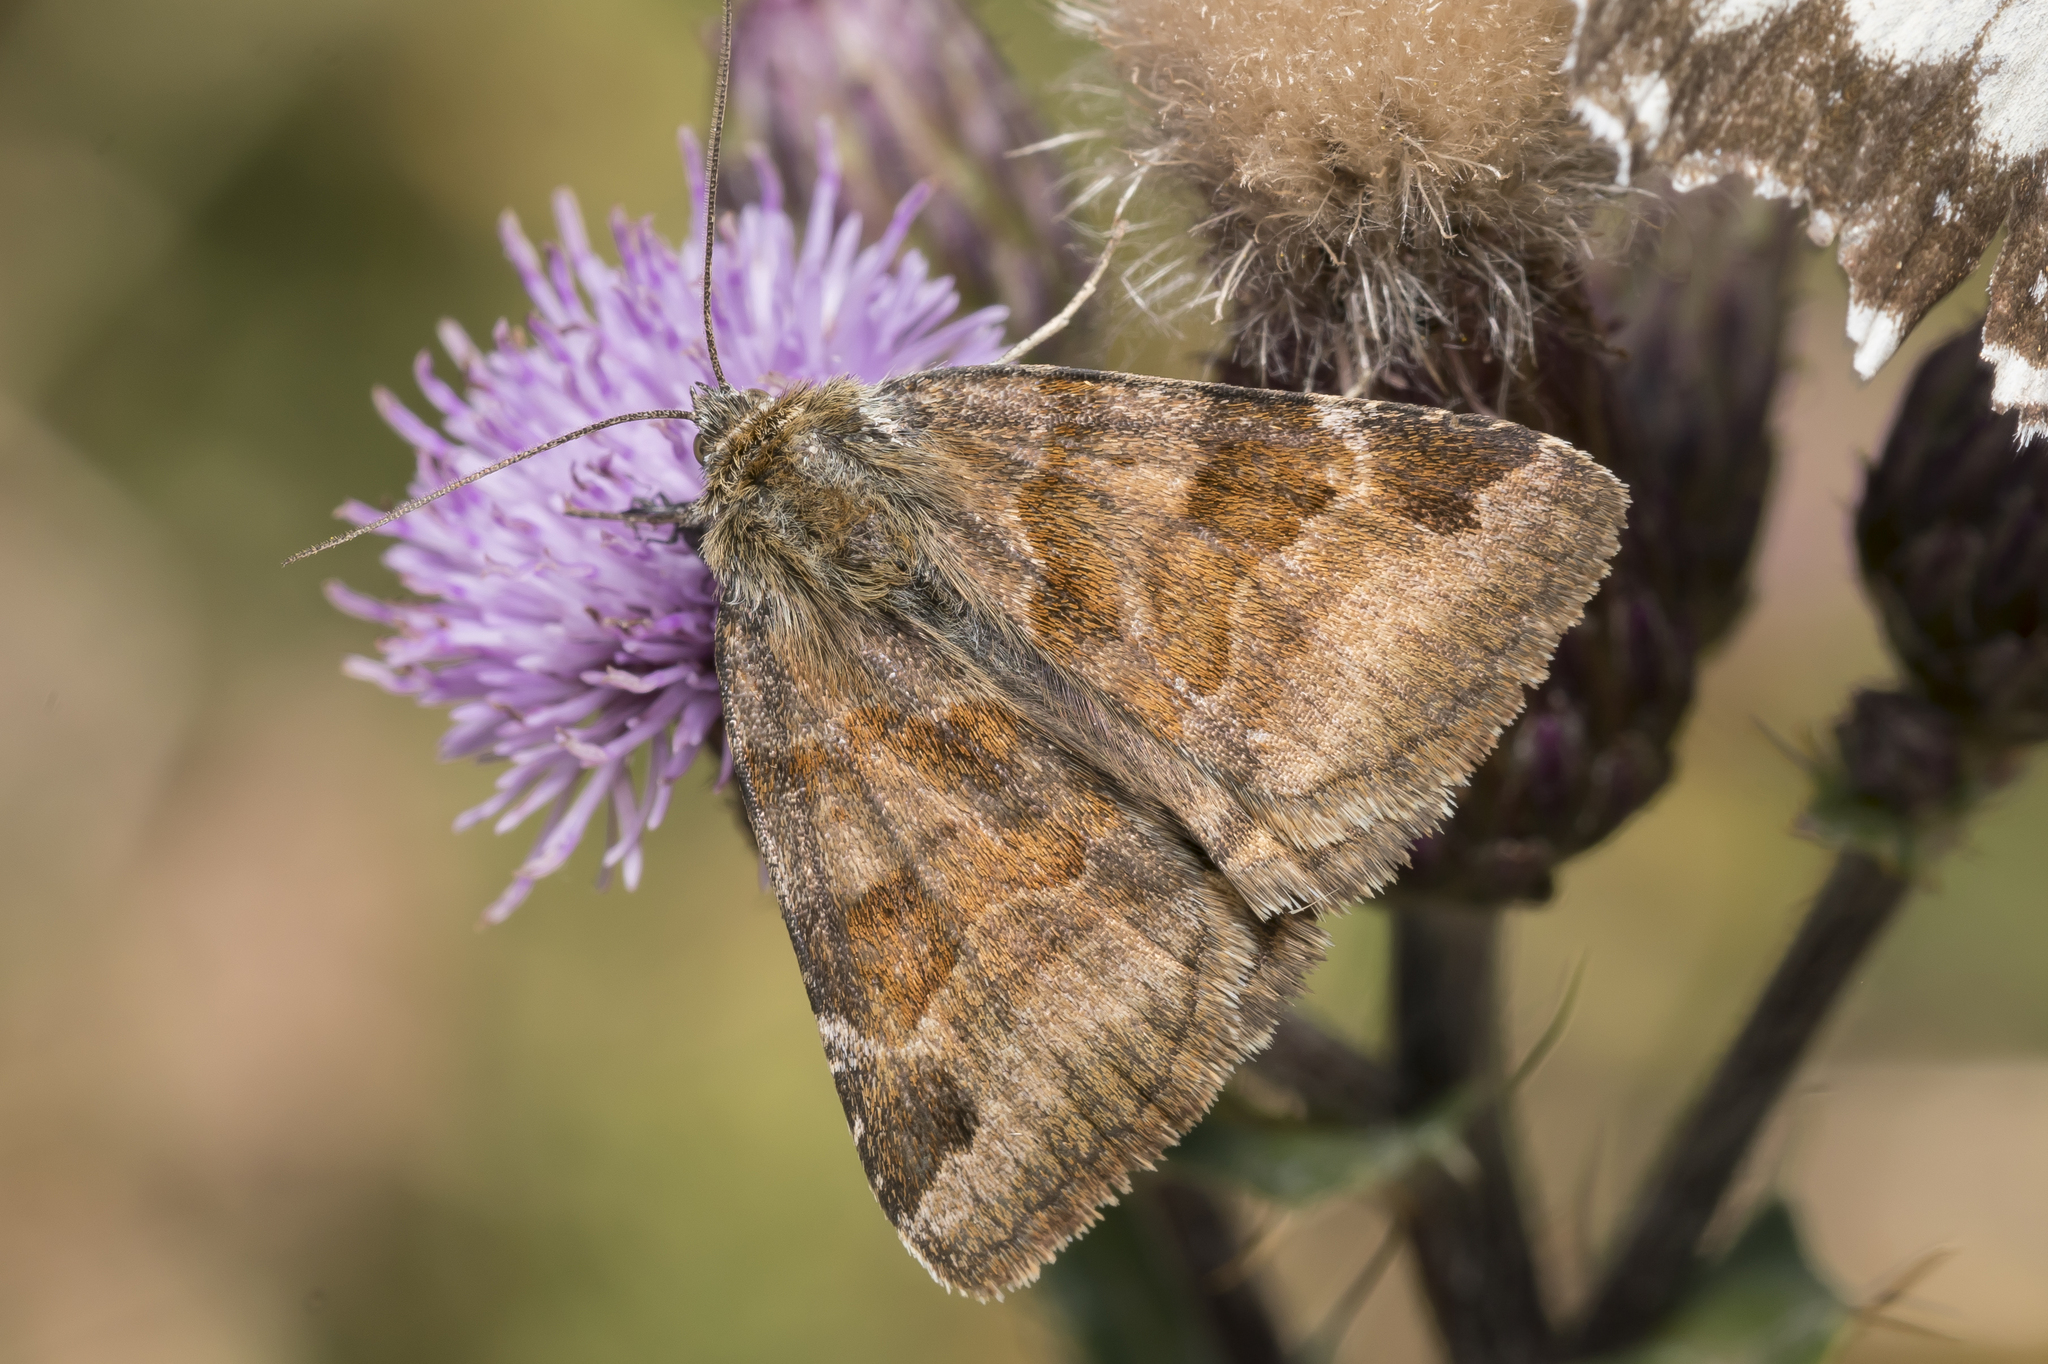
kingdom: Animalia
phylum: Arthropoda
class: Insecta
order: Lepidoptera
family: Erebidae
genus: Euclidia
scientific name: Euclidia glyphica
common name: Burnet companion
